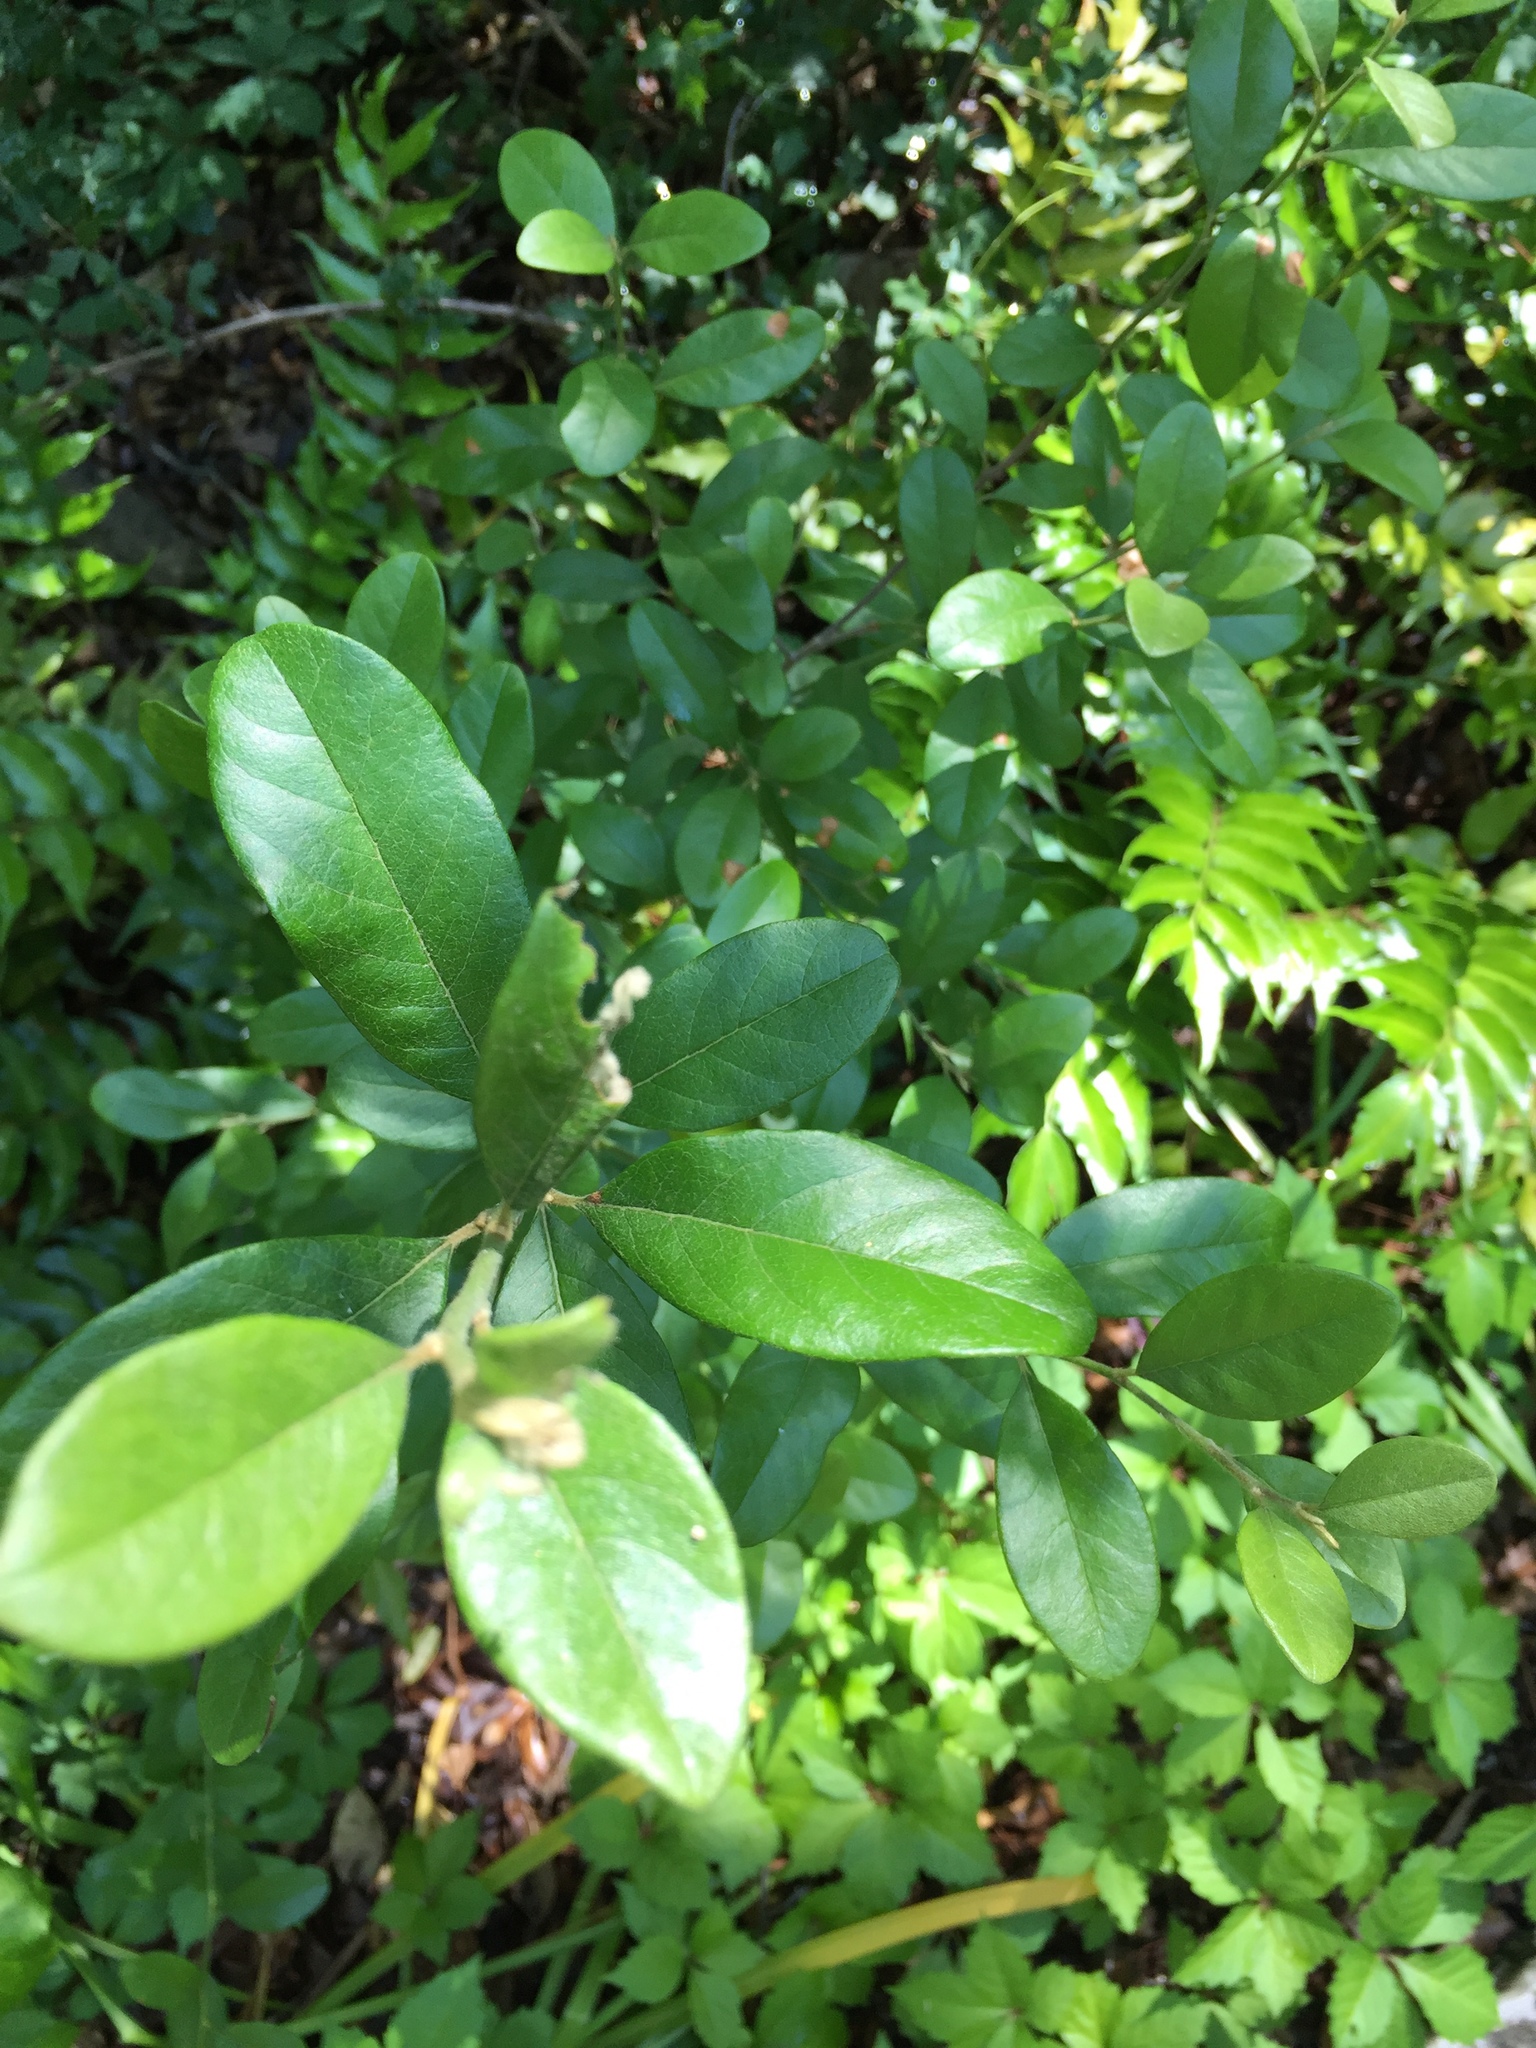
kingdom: Plantae
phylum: Tracheophyta
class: Magnoliopsida
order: Ericales
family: Sapotaceae
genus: Sideroxylon
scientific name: Sideroxylon lanuginosum
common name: Chittamwood
